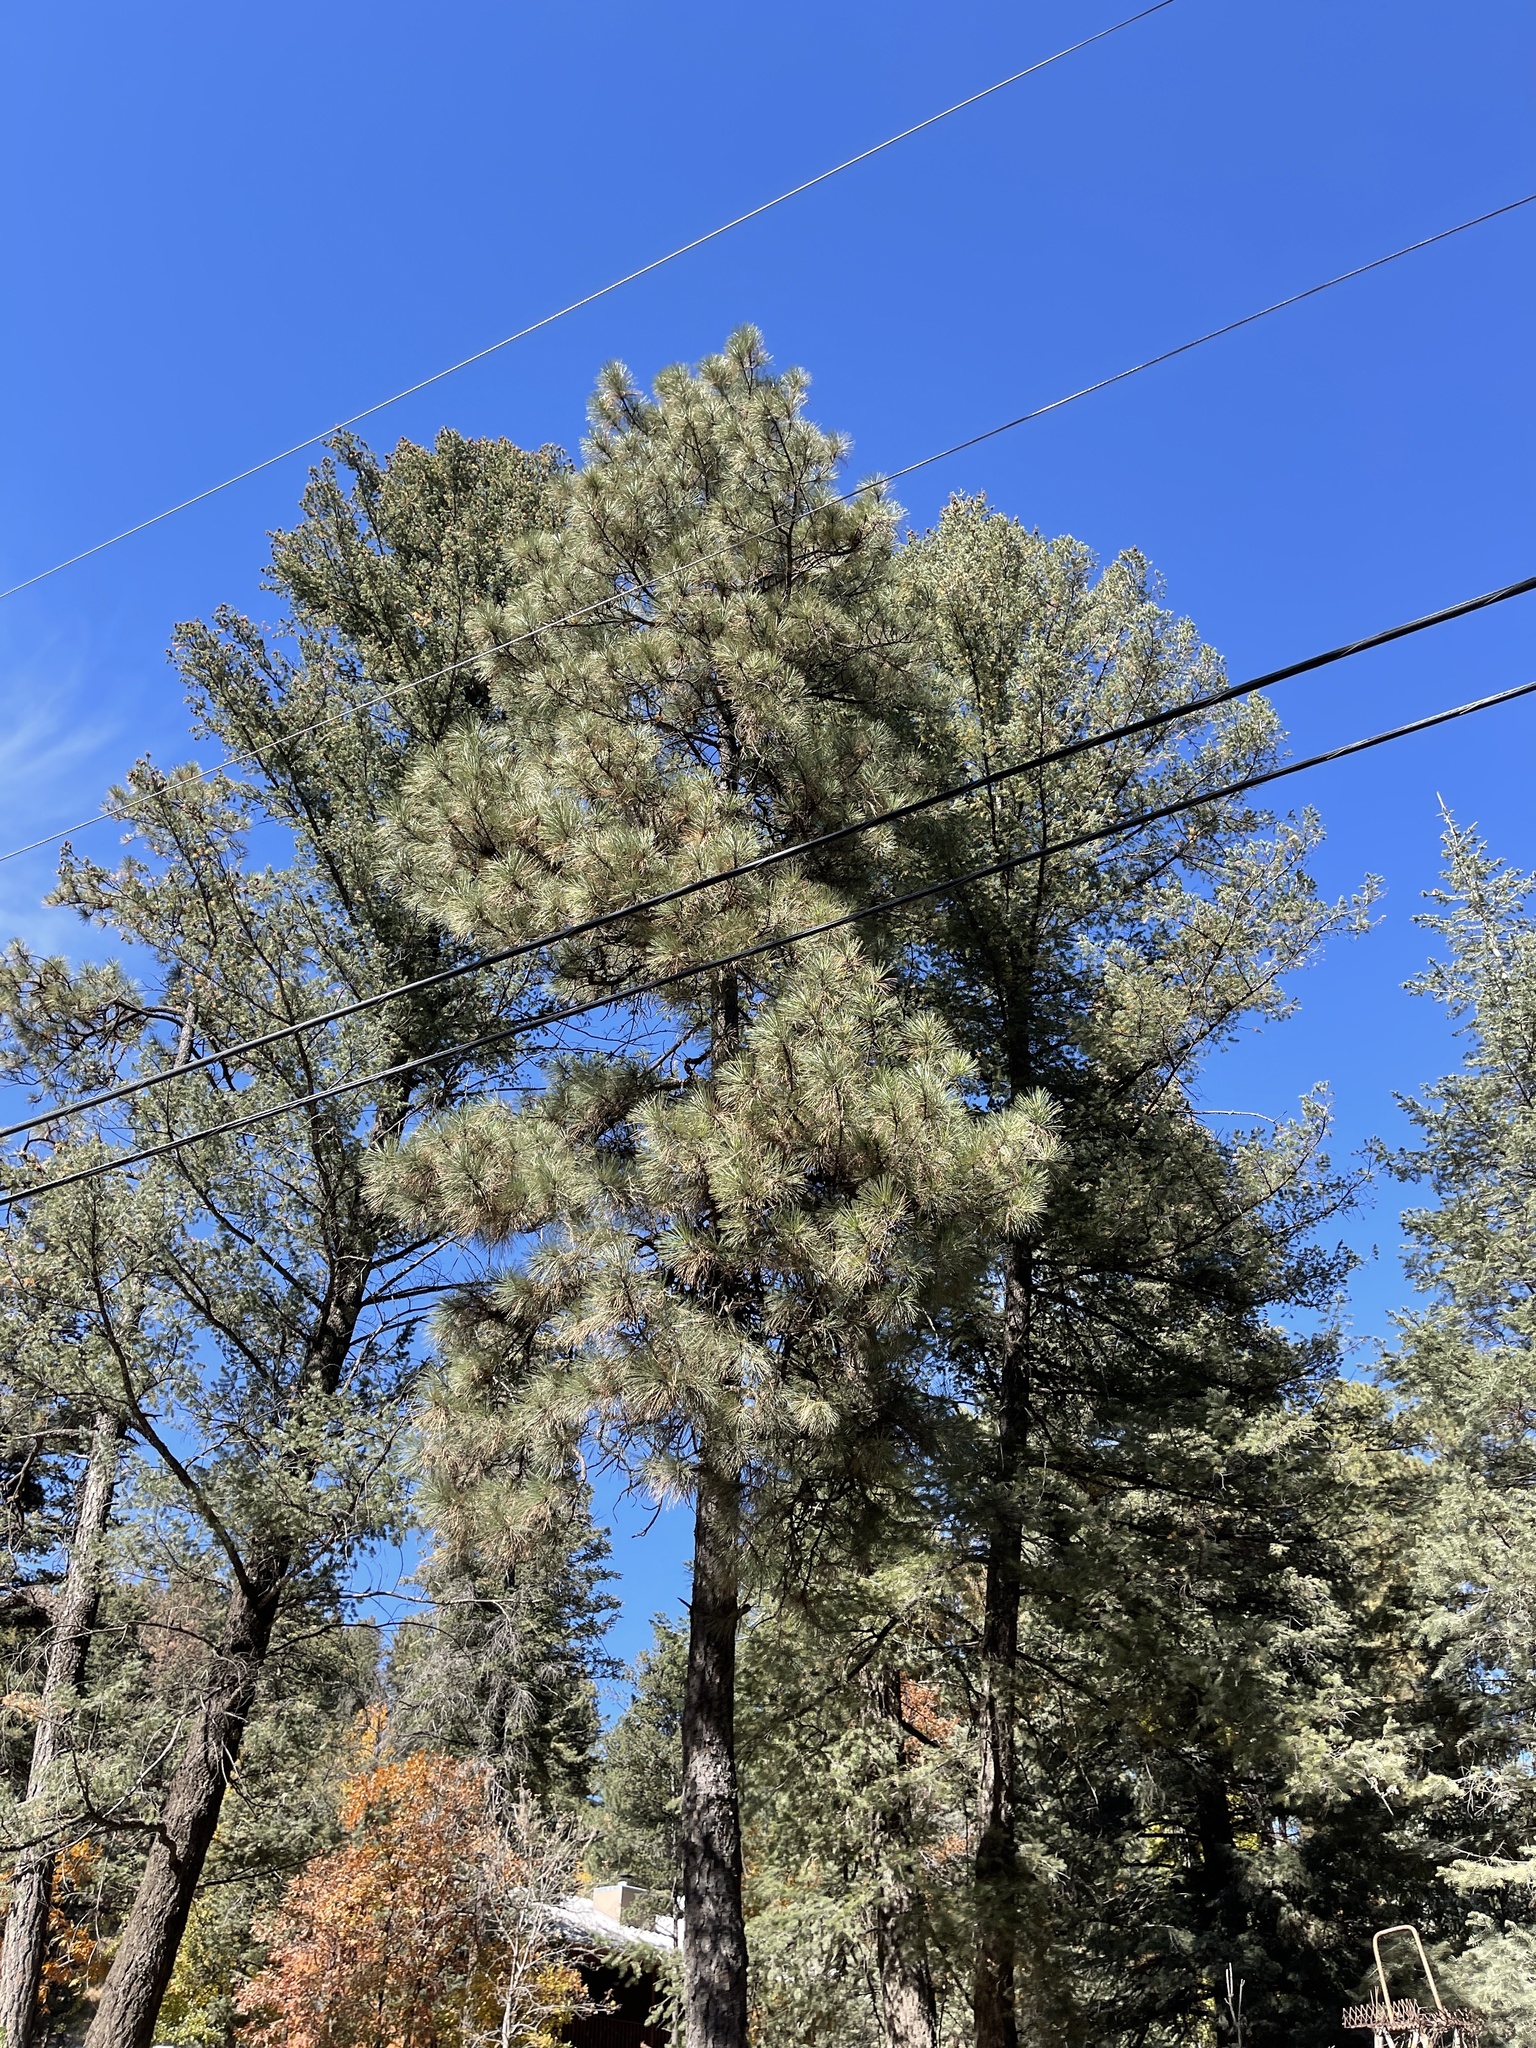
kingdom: Plantae
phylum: Tracheophyta
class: Pinopsida
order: Pinales
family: Pinaceae
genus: Pinus
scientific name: Pinus ponderosa
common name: Western yellow-pine
